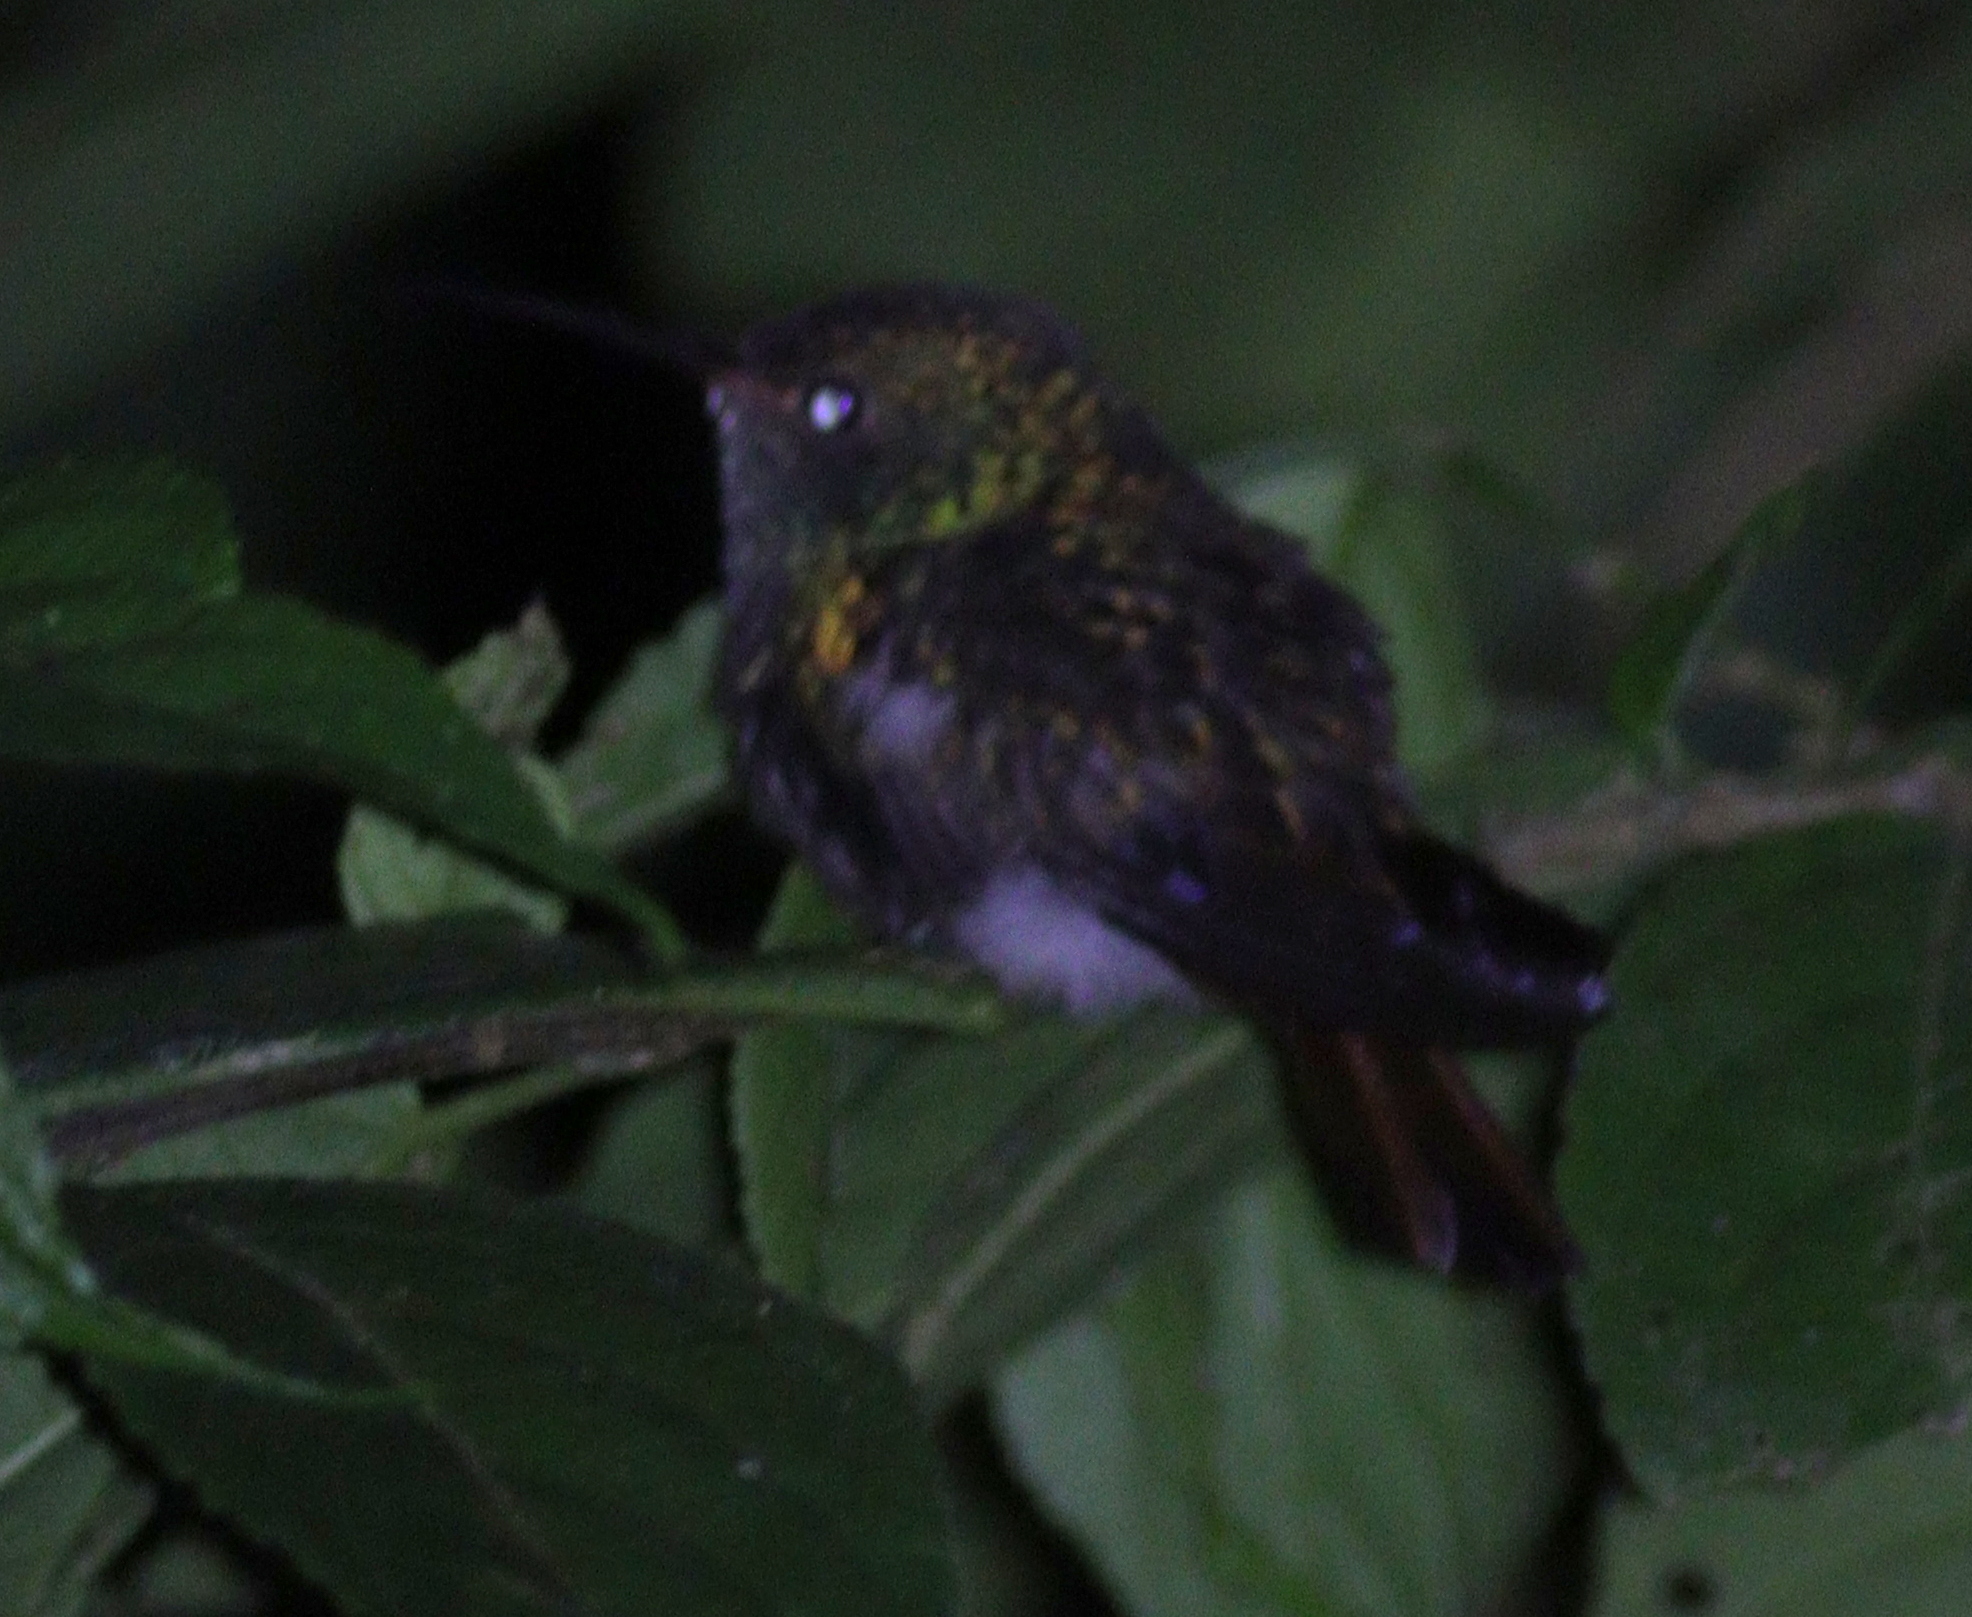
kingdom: Animalia
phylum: Chordata
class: Aves
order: Apodiformes
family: Trochilidae
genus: Amazilia
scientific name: Amazilia tzacatl
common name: Rufous-tailed hummingbird
